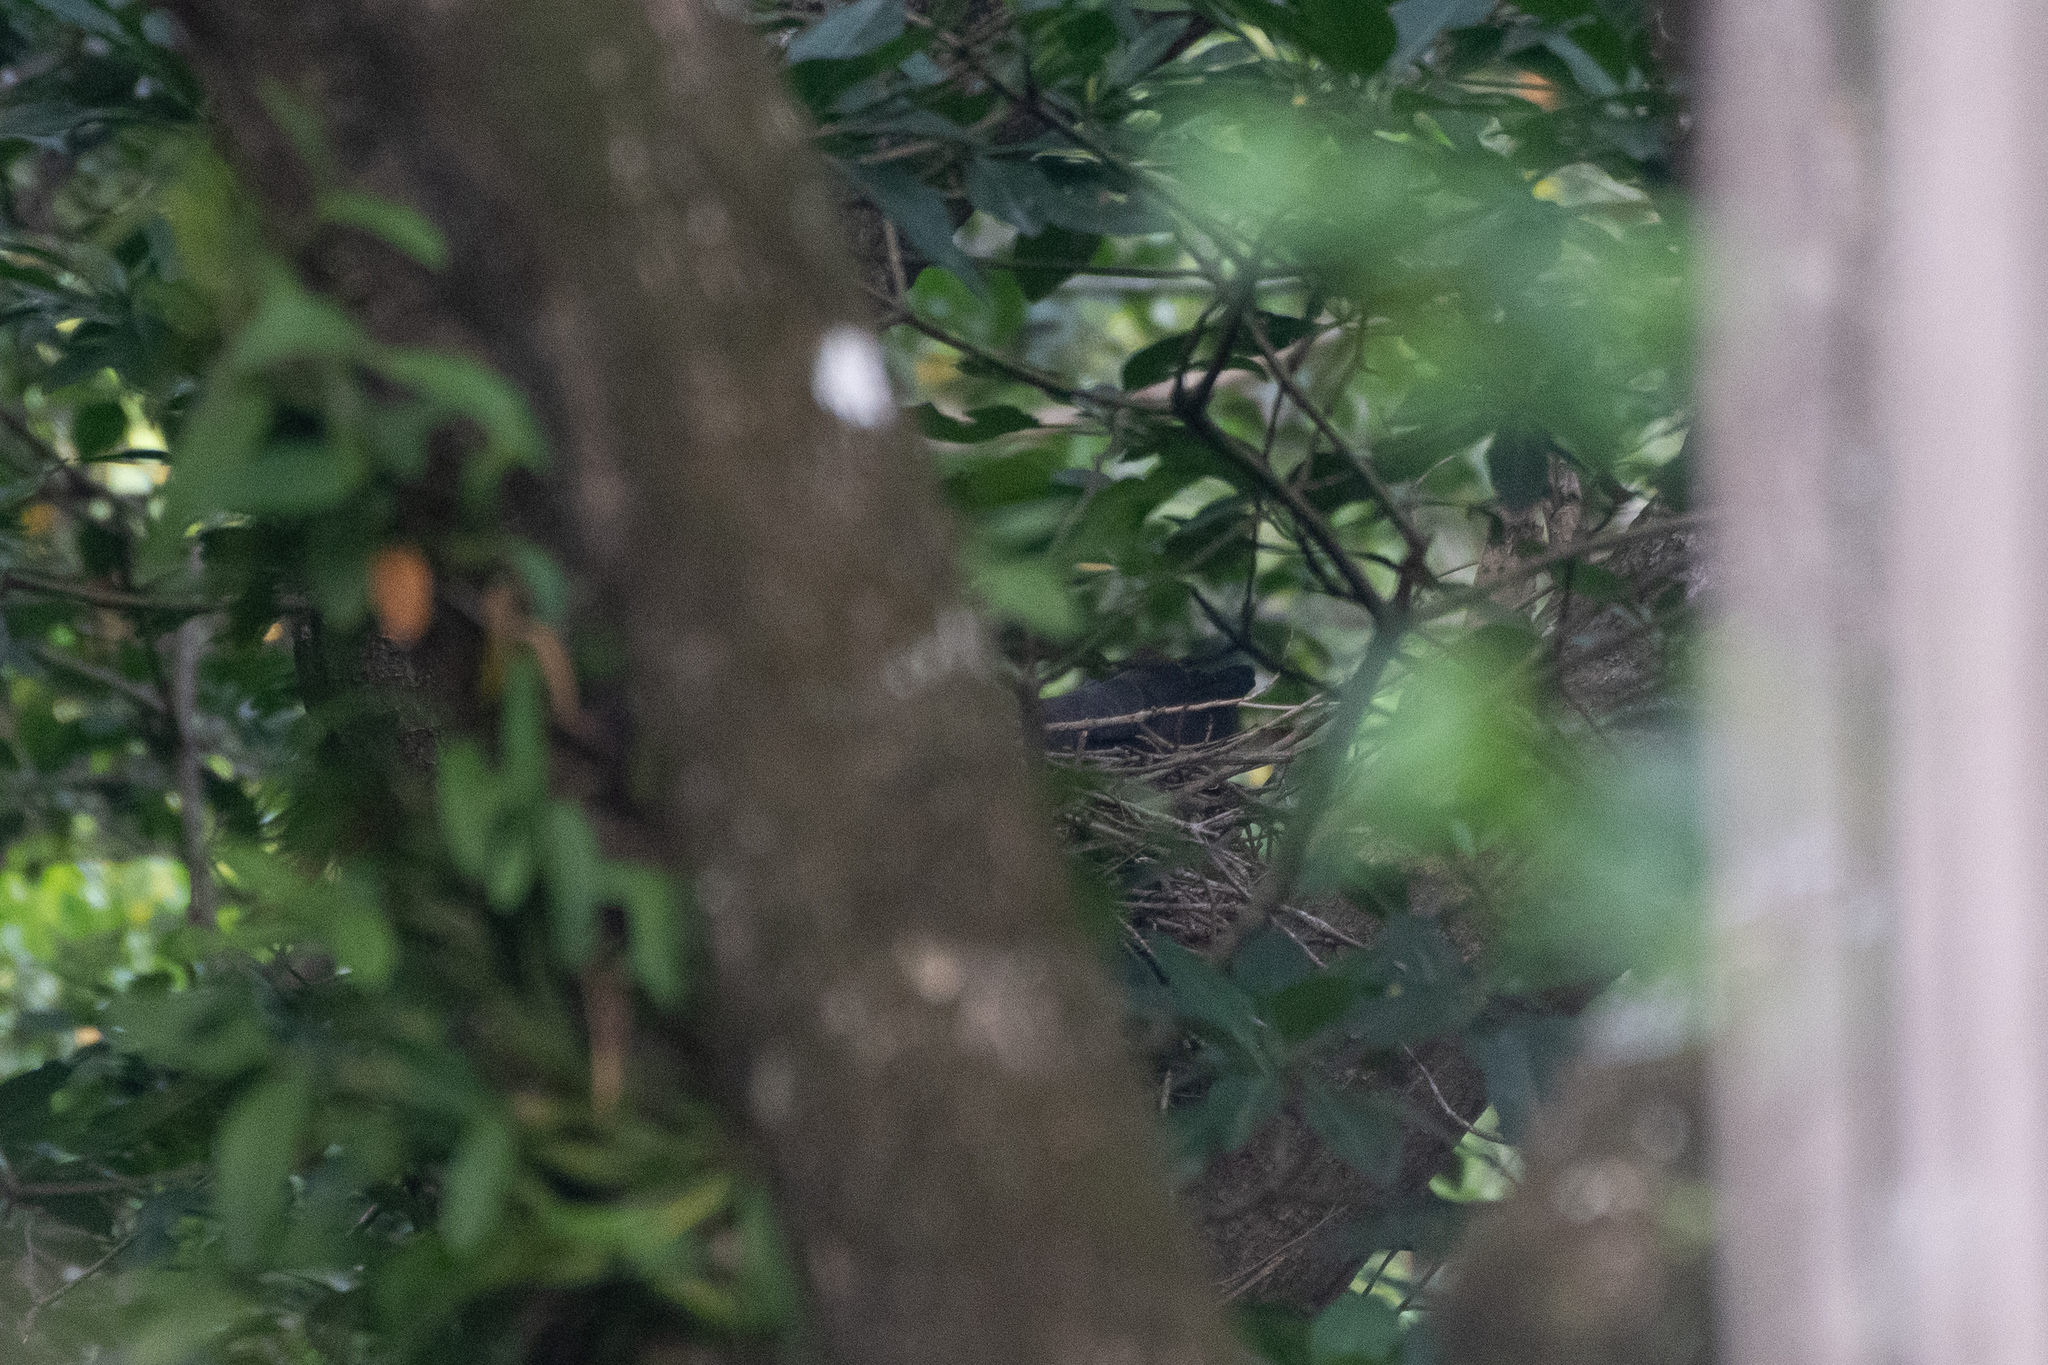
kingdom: Animalia
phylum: Chordata
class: Aves
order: Accipitriformes
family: Accipitridae
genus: Buteogallus
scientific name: Buteogallus anthracinus
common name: Common black hawk
